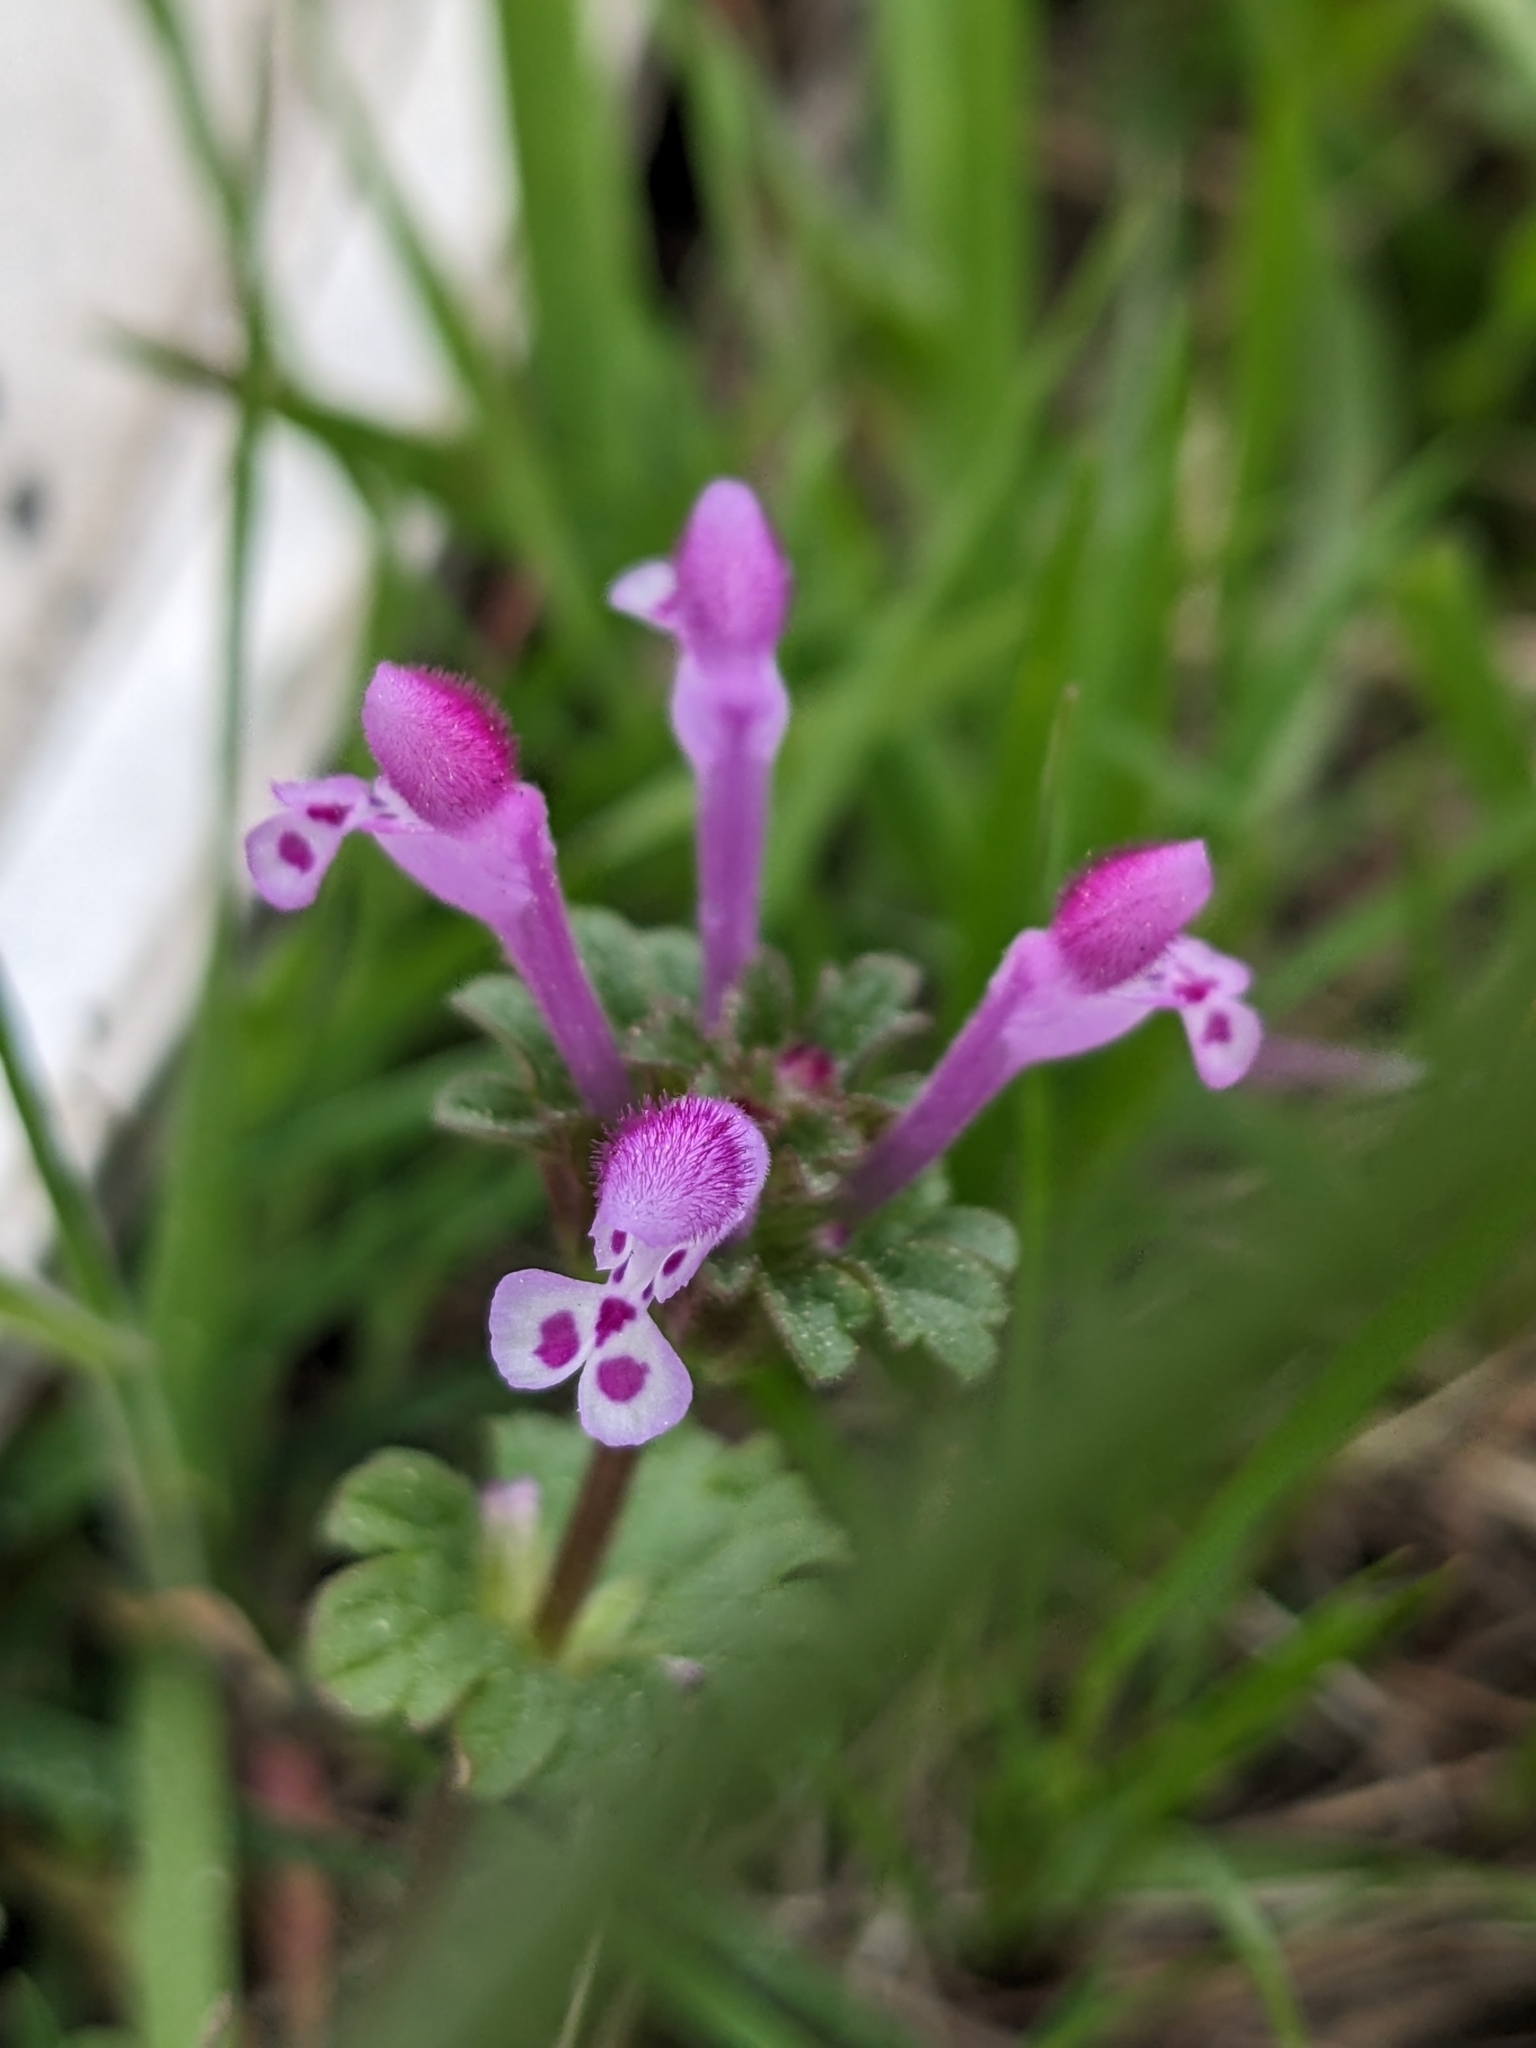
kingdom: Plantae
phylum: Tracheophyta
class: Magnoliopsida
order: Lamiales
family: Lamiaceae
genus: Lamium
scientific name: Lamium amplexicaule
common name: Henbit dead-nettle
